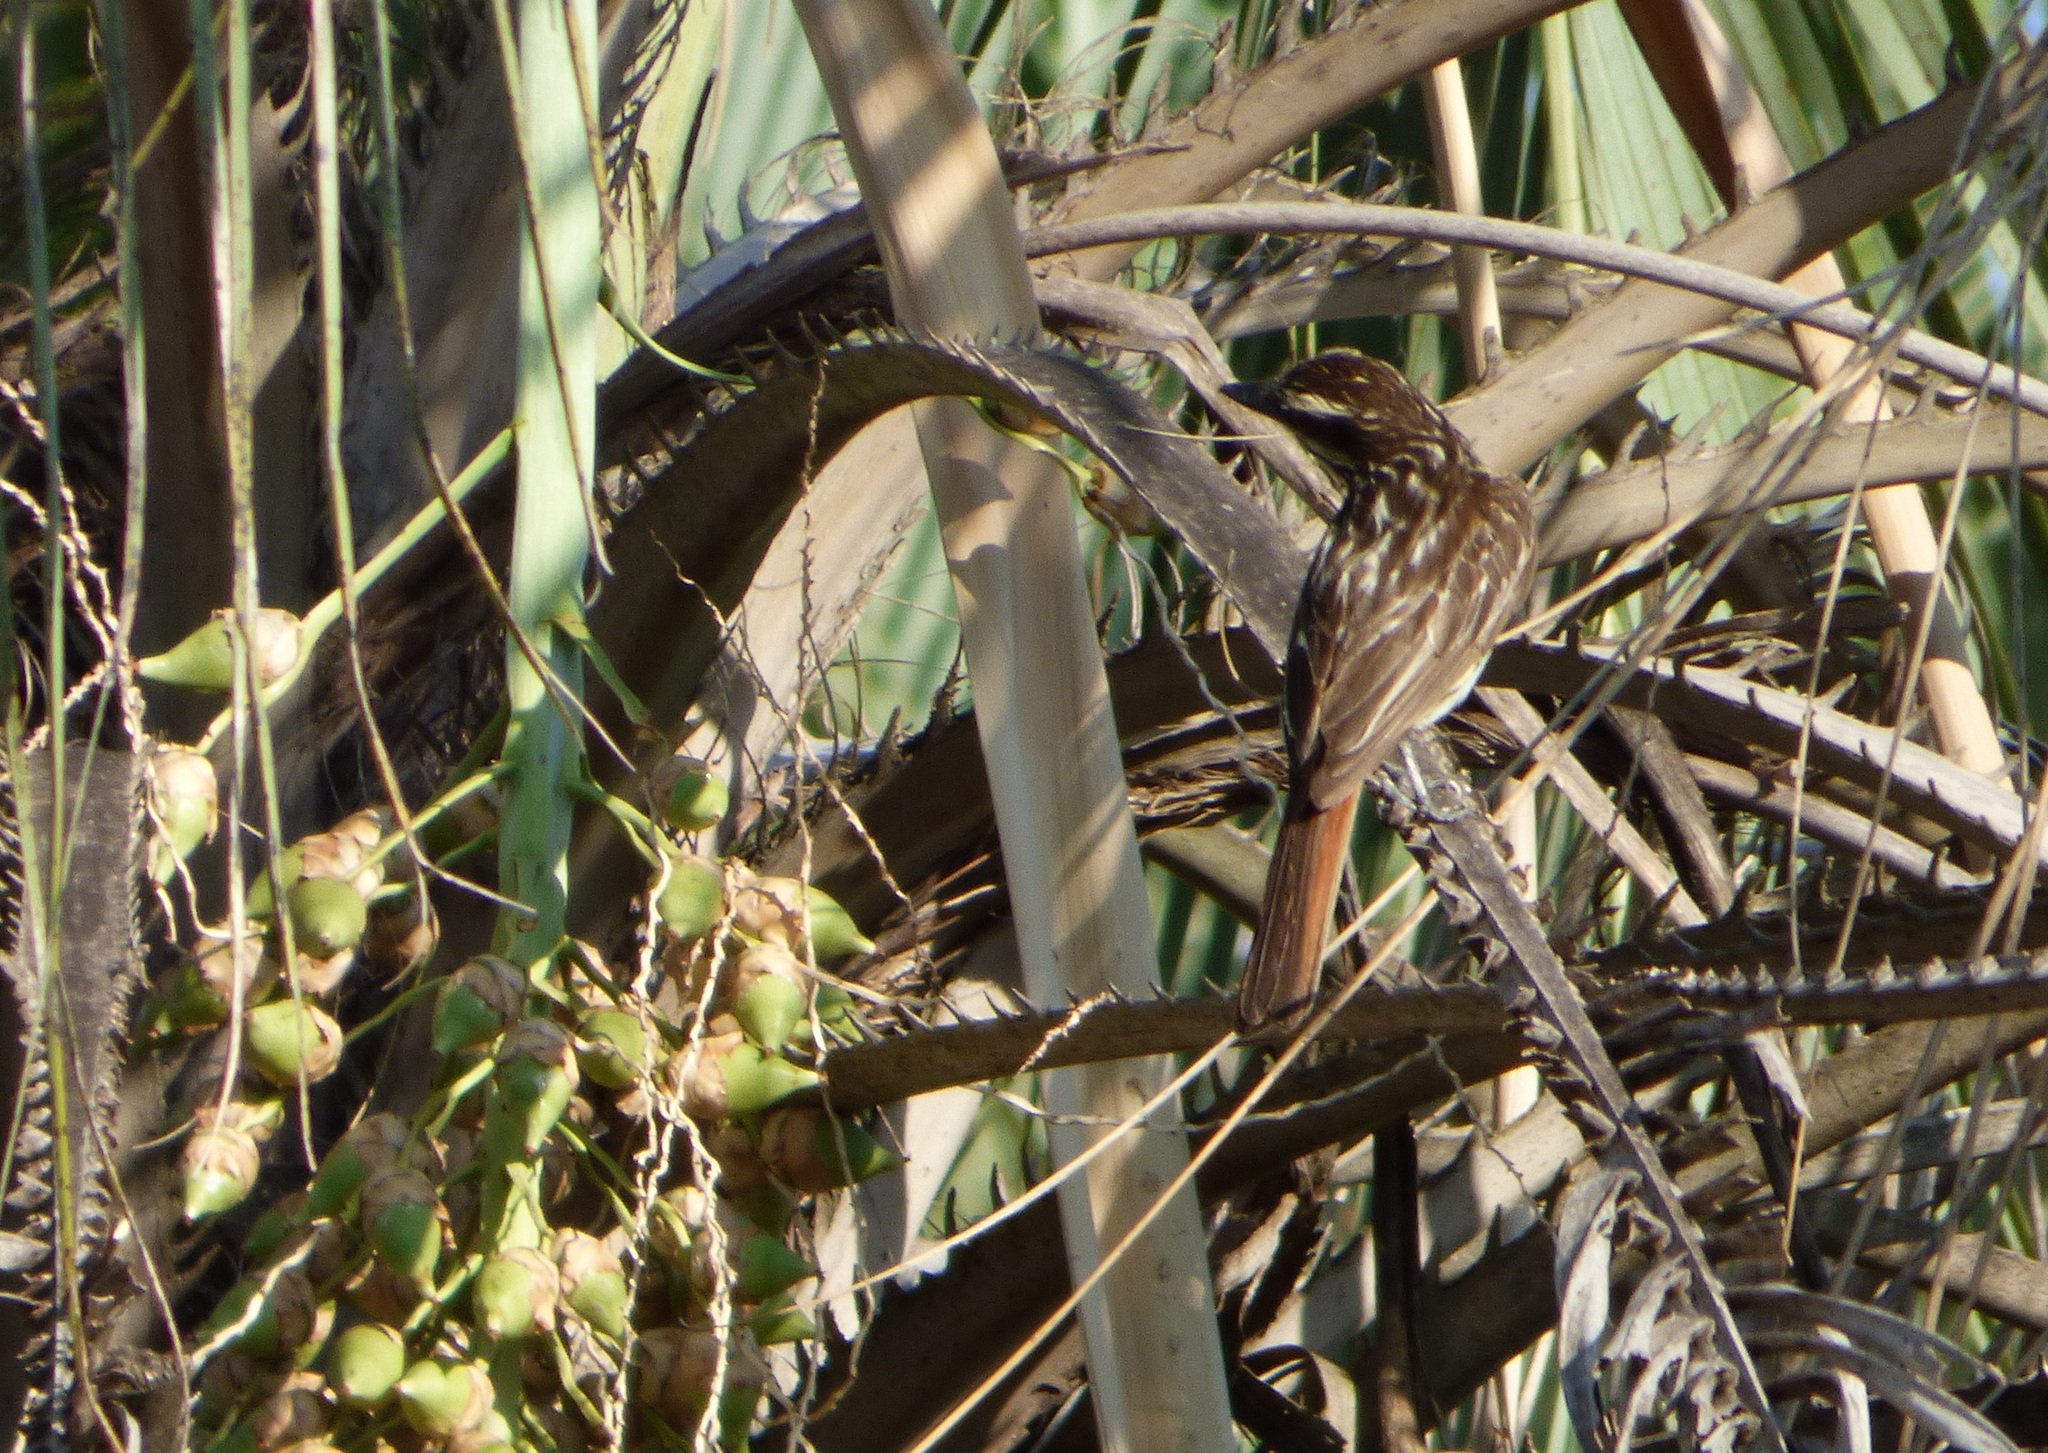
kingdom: Animalia
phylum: Chordata
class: Aves
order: Passeriformes
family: Tyrannidae
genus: Empidonomus
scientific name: Empidonomus varius
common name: Variegated flycatcher
